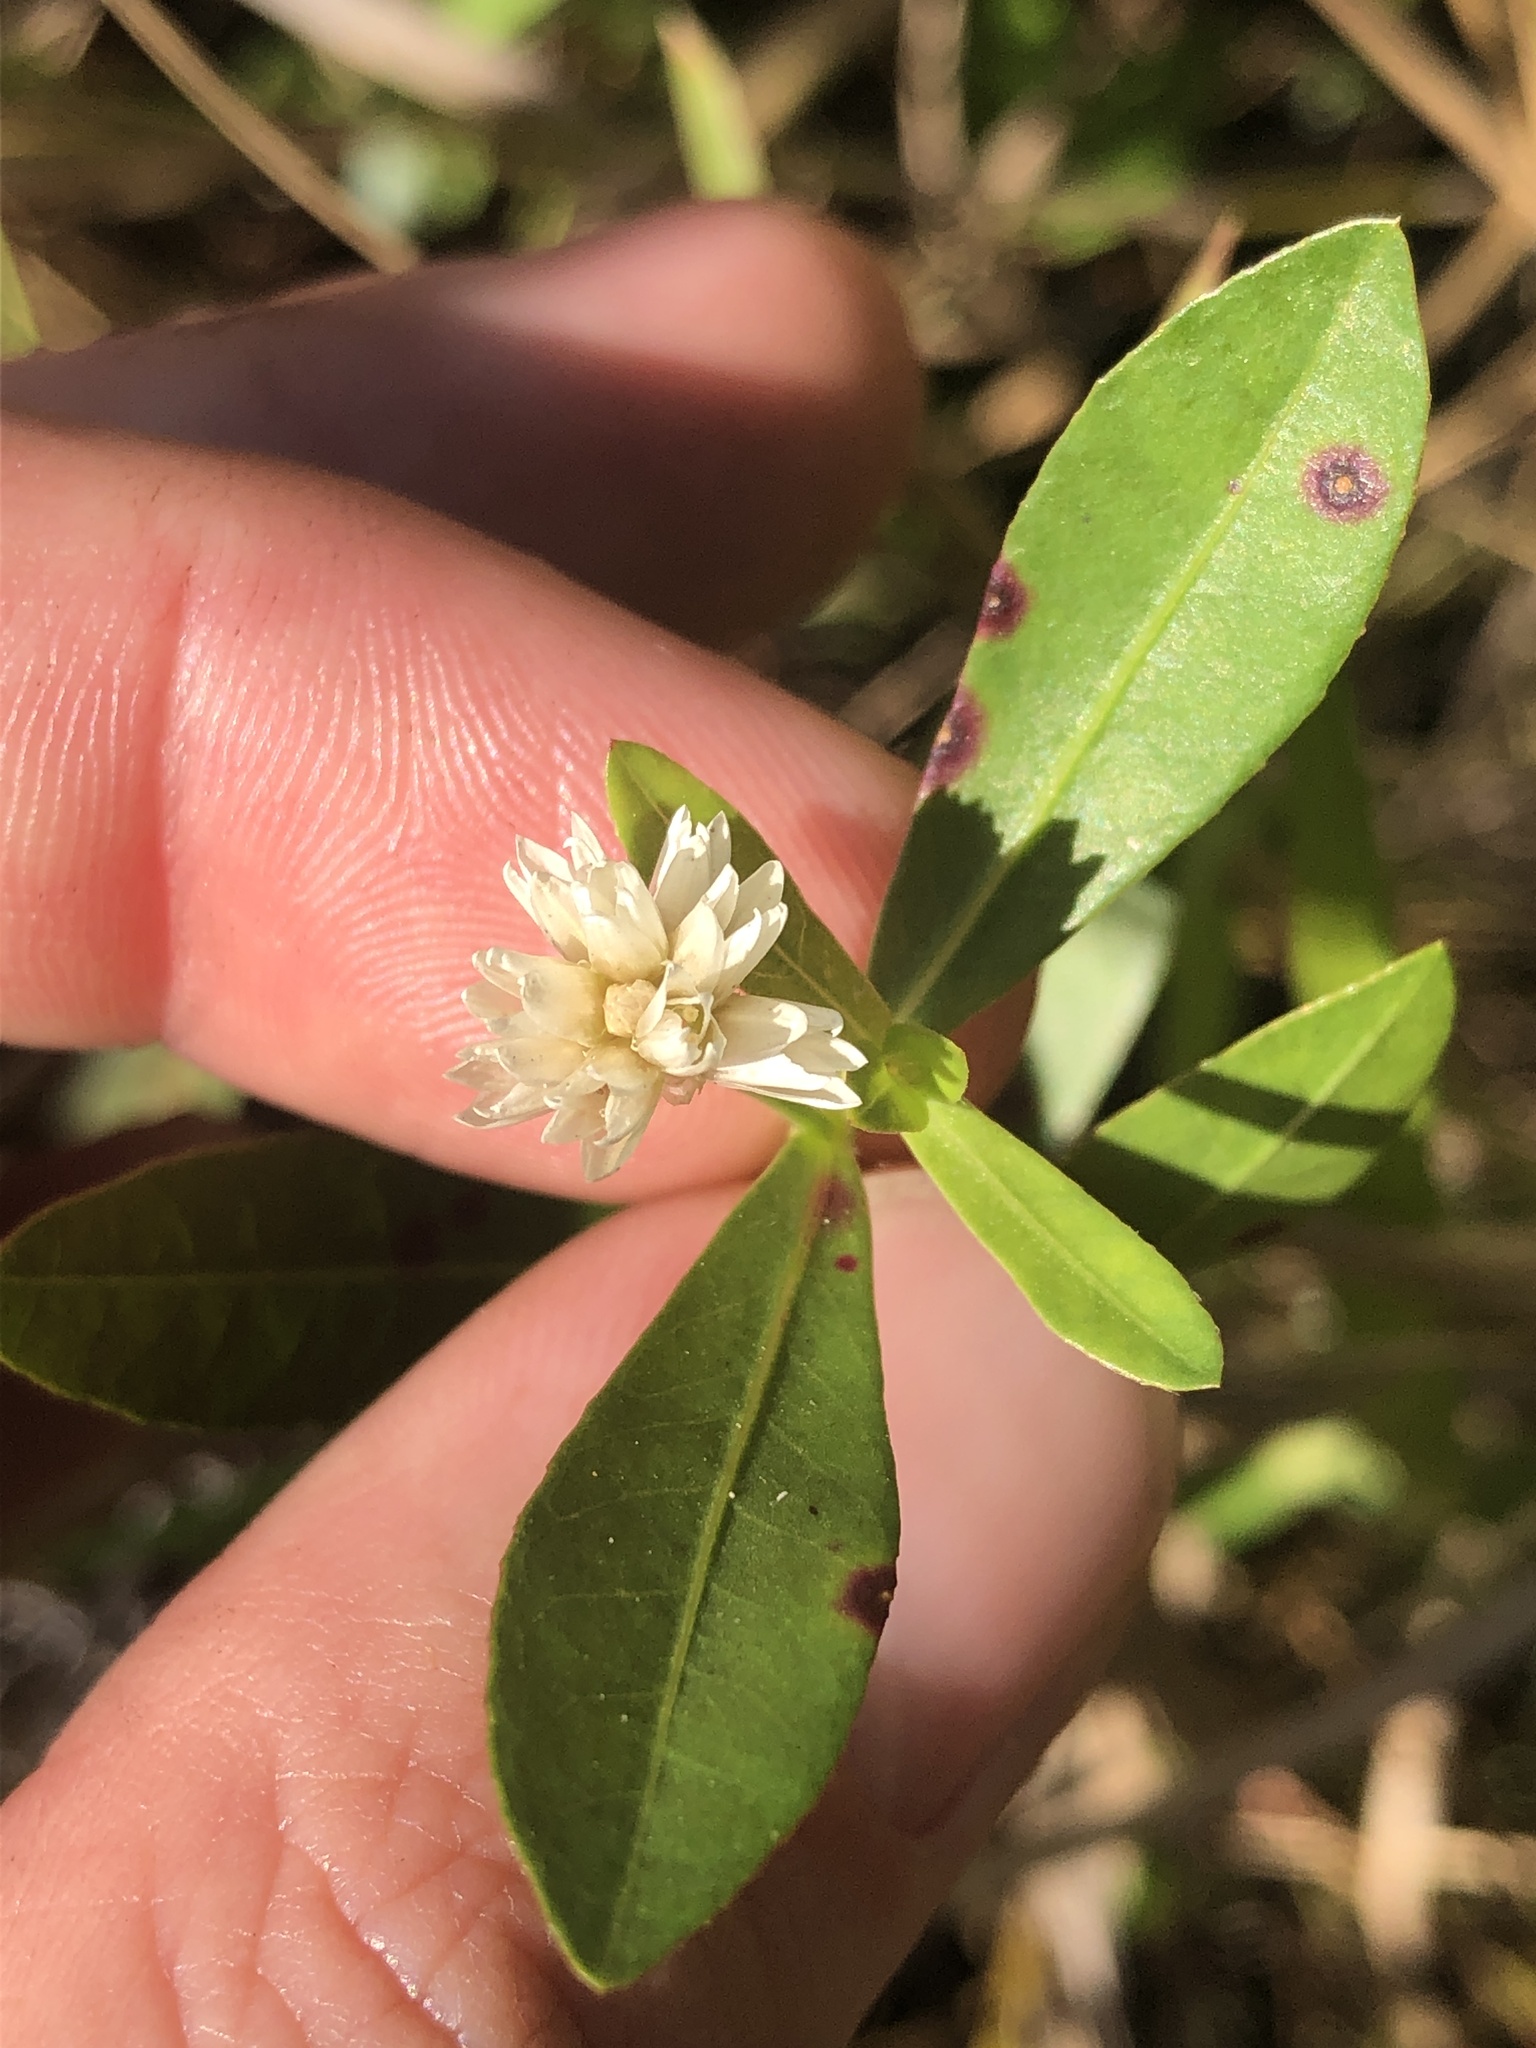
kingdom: Plantae
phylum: Tracheophyta
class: Magnoliopsida
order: Caryophyllales
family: Amaranthaceae
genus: Alternanthera
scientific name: Alternanthera philoxeroides
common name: Alligatorweed
